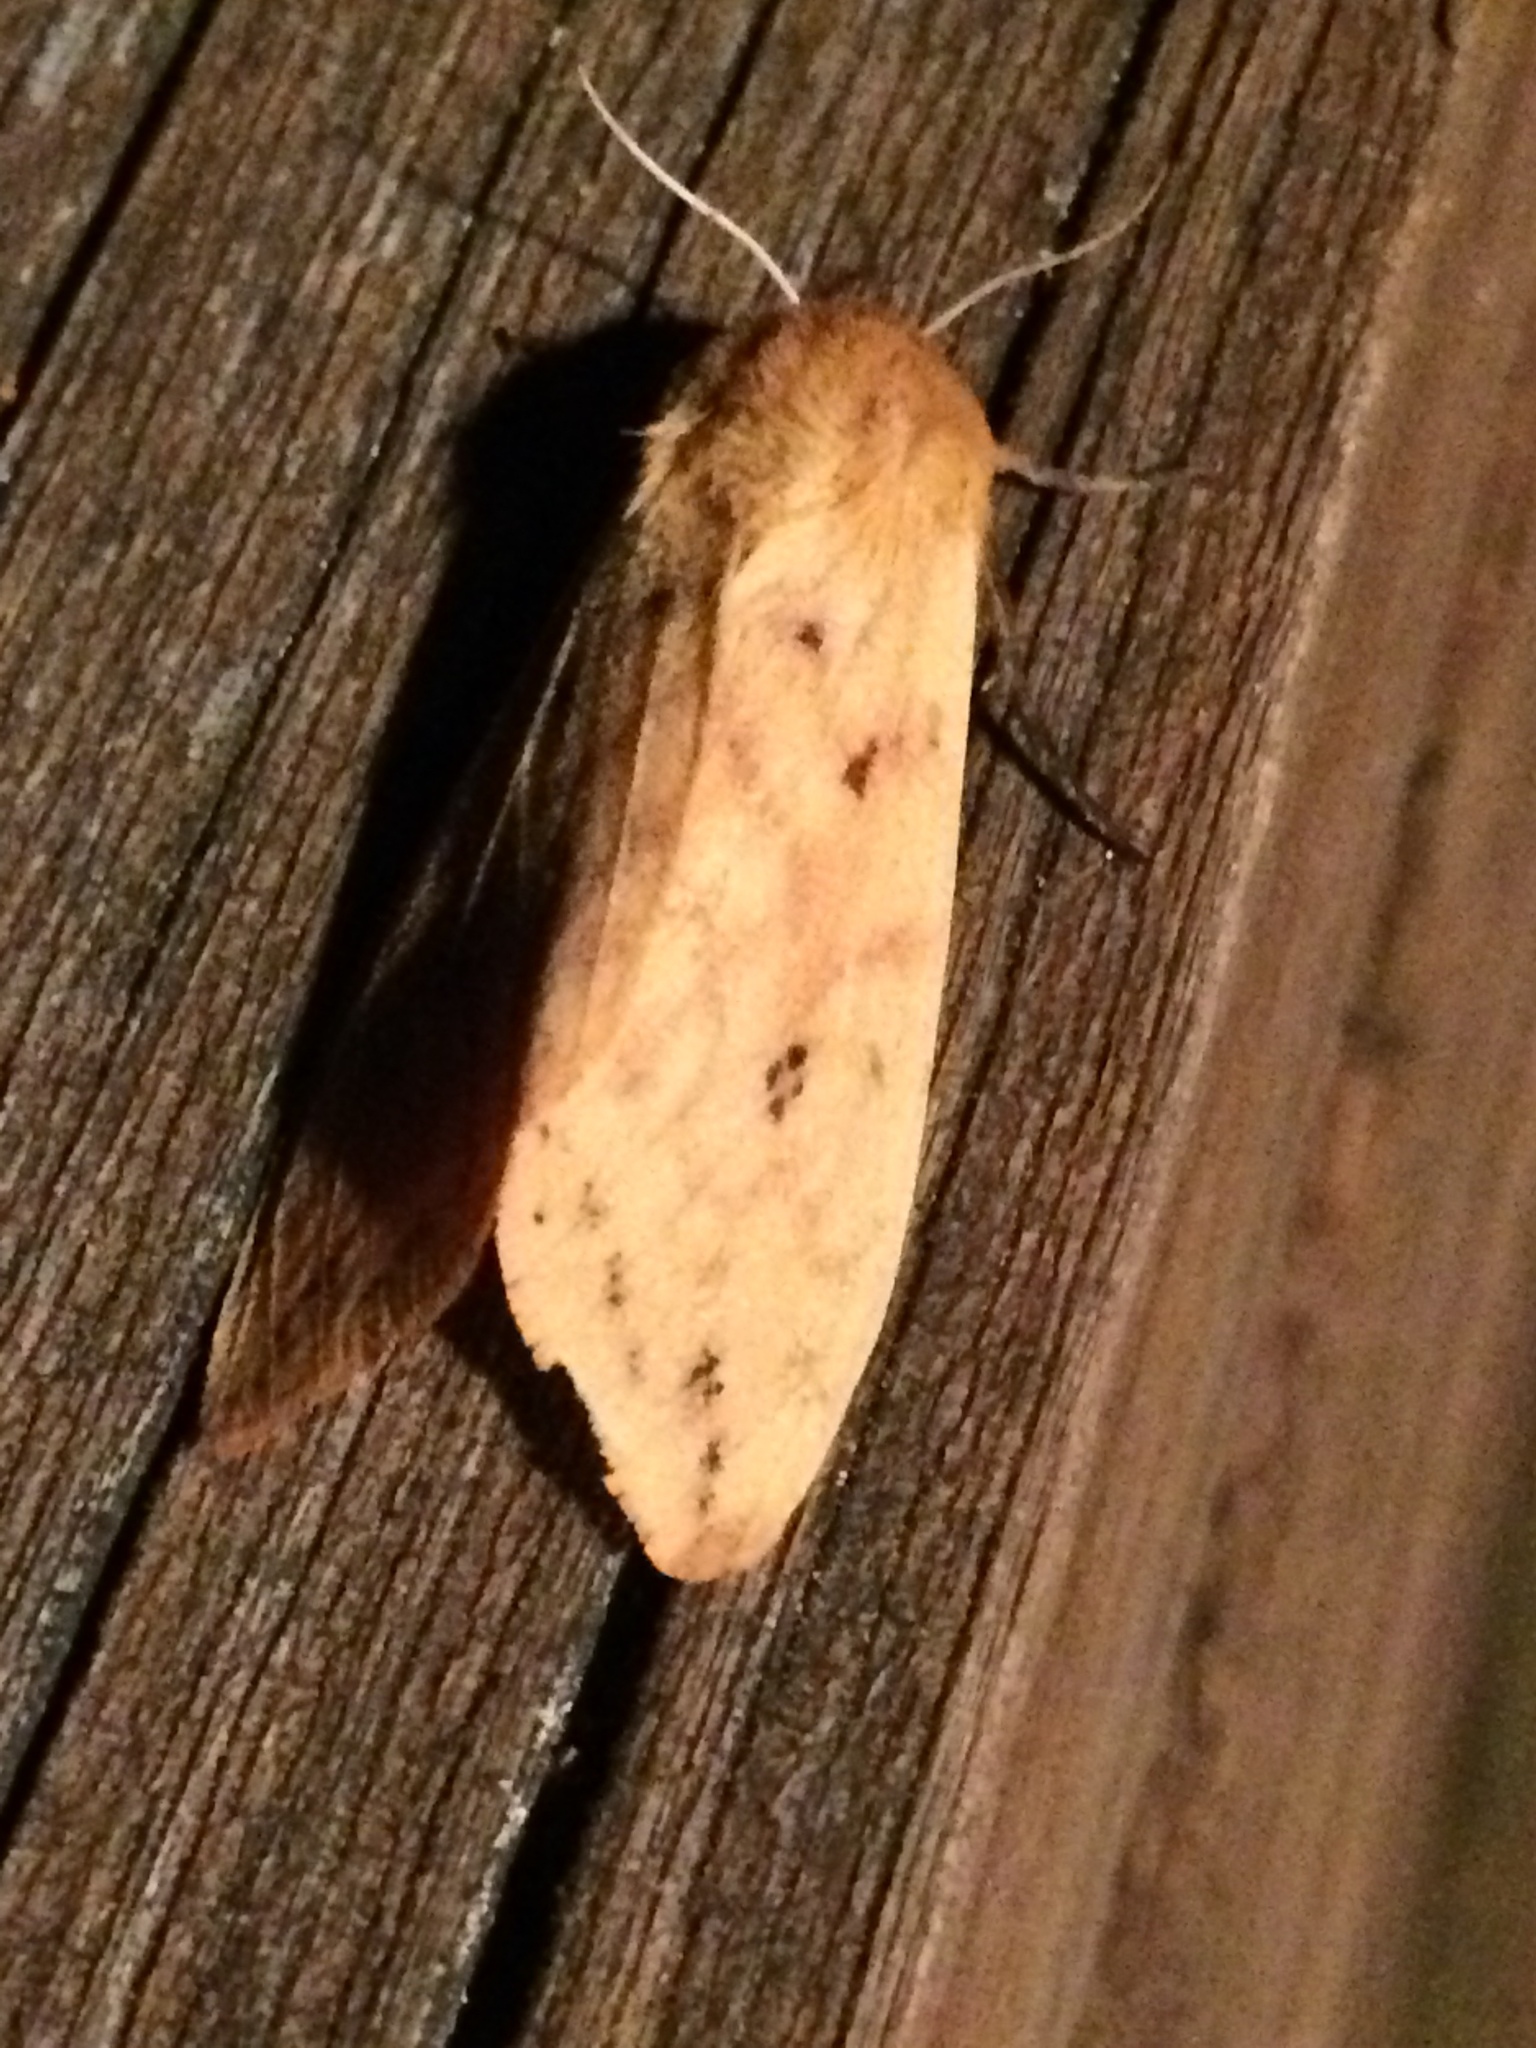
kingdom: Animalia
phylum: Arthropoda
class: Insecta
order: Lepidoptera
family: Erebidae
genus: Pyrrharctia
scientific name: Pyrrharctia isabella
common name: Isabella tiger moth
